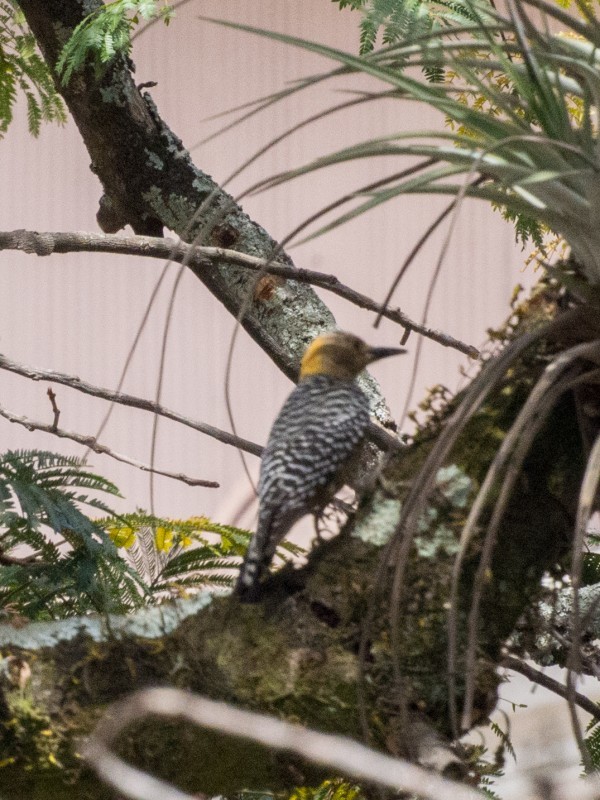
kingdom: Animalia
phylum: Chordata
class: Aves
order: Piciformes
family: Picidae
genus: Melanerpes
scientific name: Melanerpes hoffmannii
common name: Hoffmann's woodpecker
